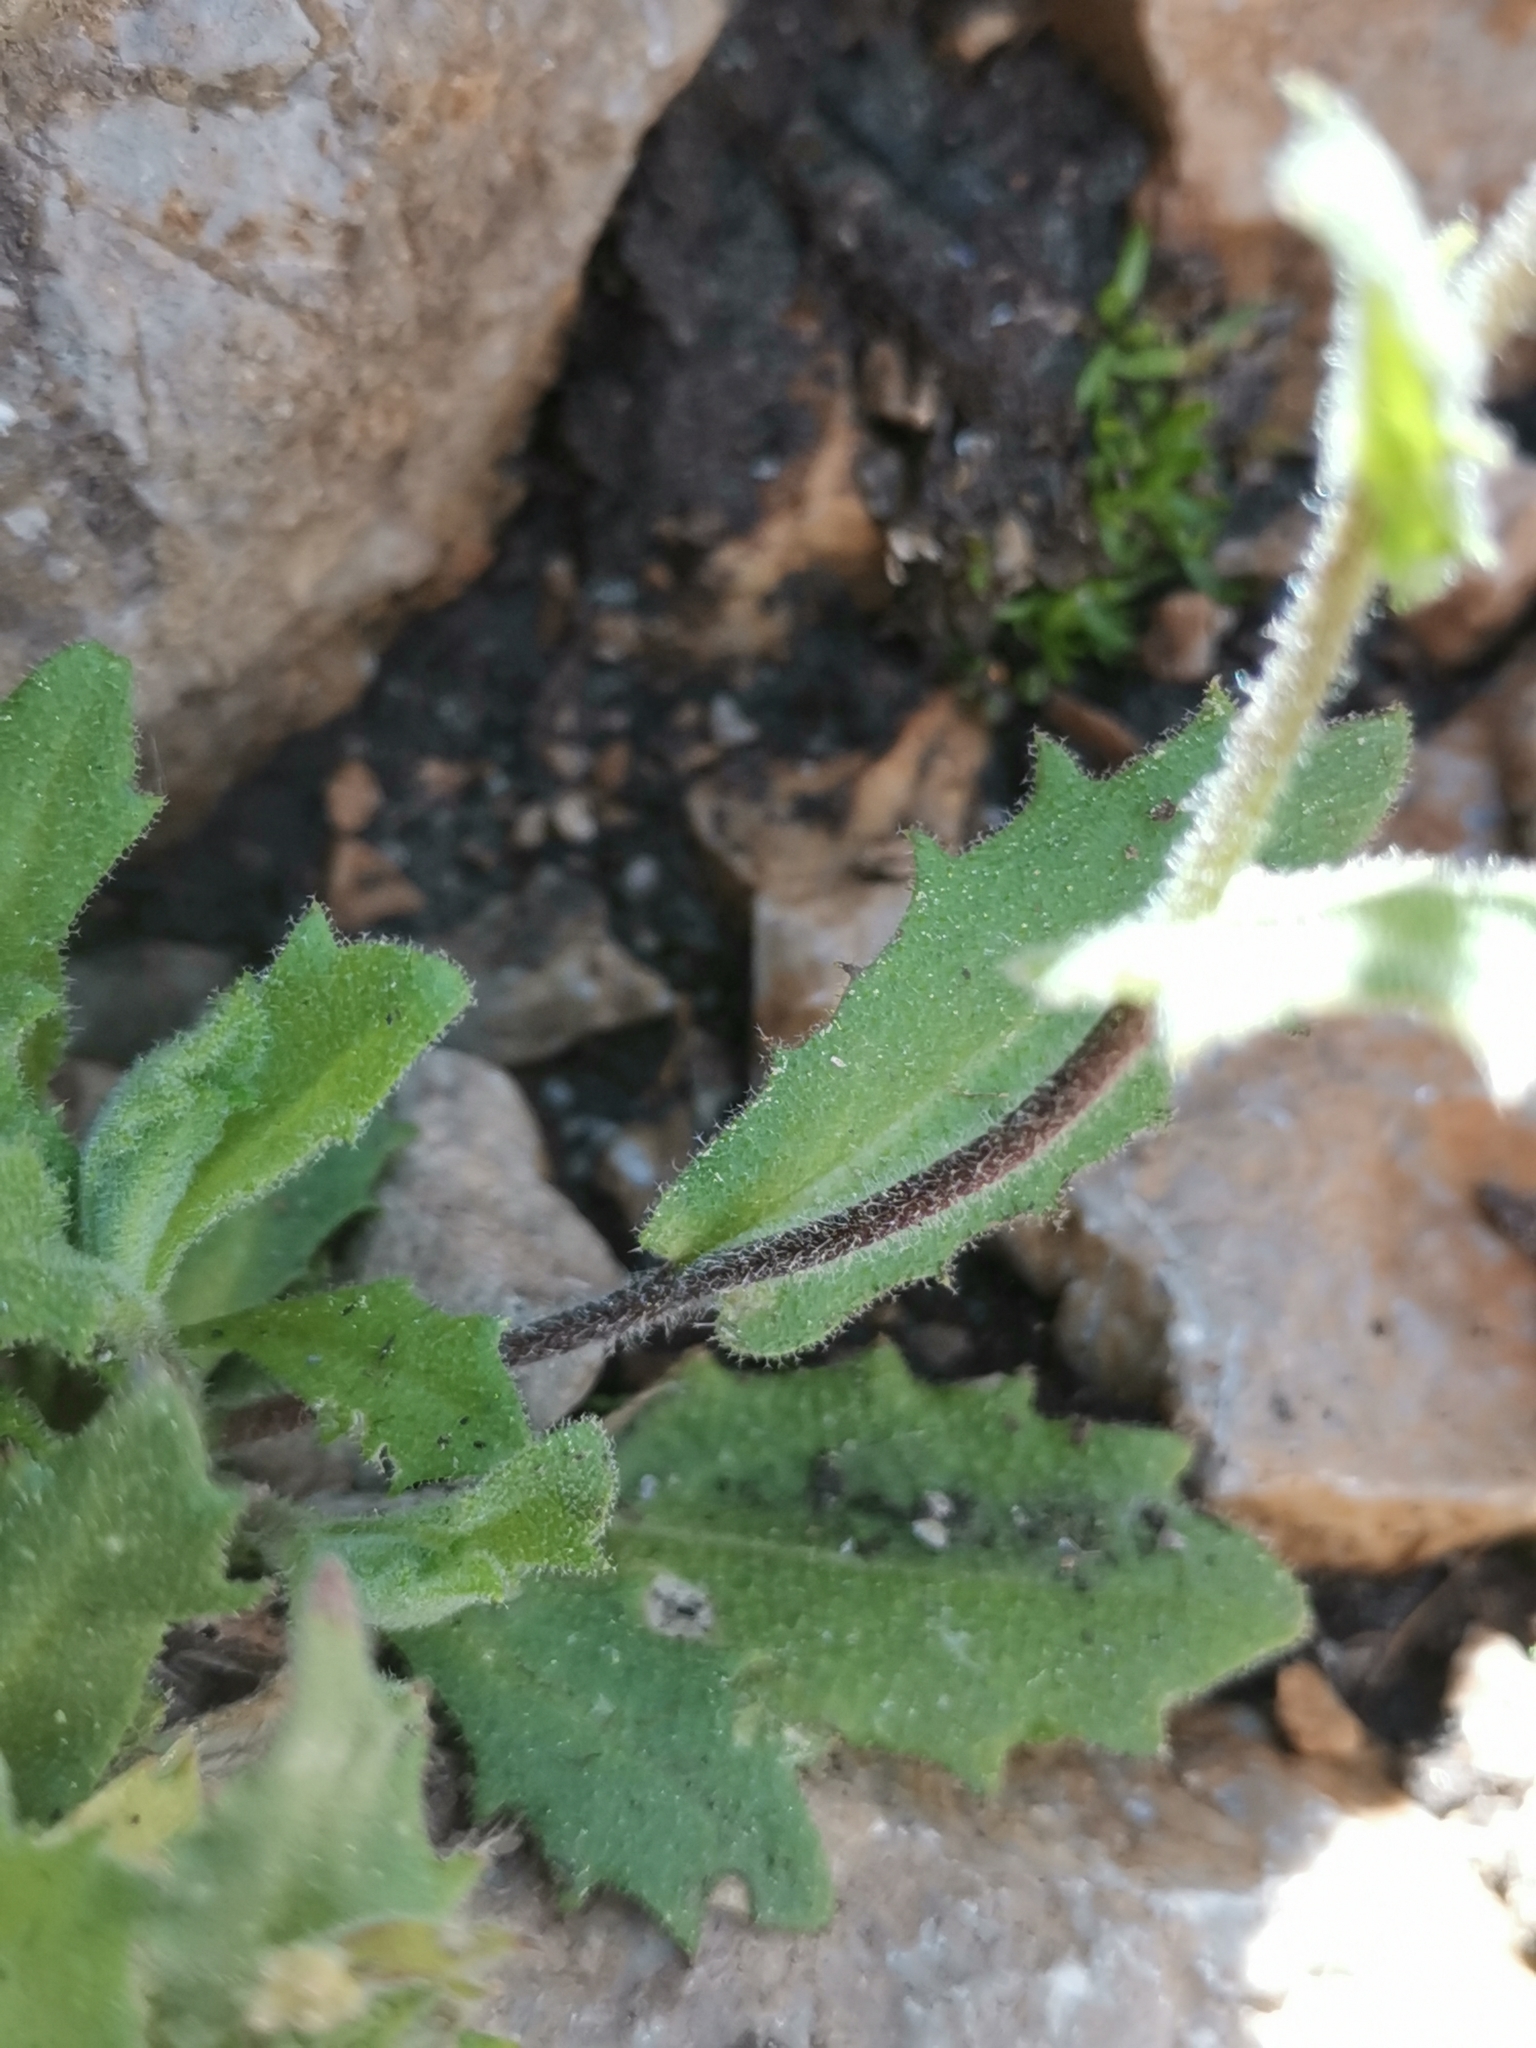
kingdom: Plantae
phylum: Tracheophyta
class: Magnoliopsida
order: Brassicales
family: Brassicaceae
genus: Arabis
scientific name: Arabis alpina
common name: Alpine rock-cress
